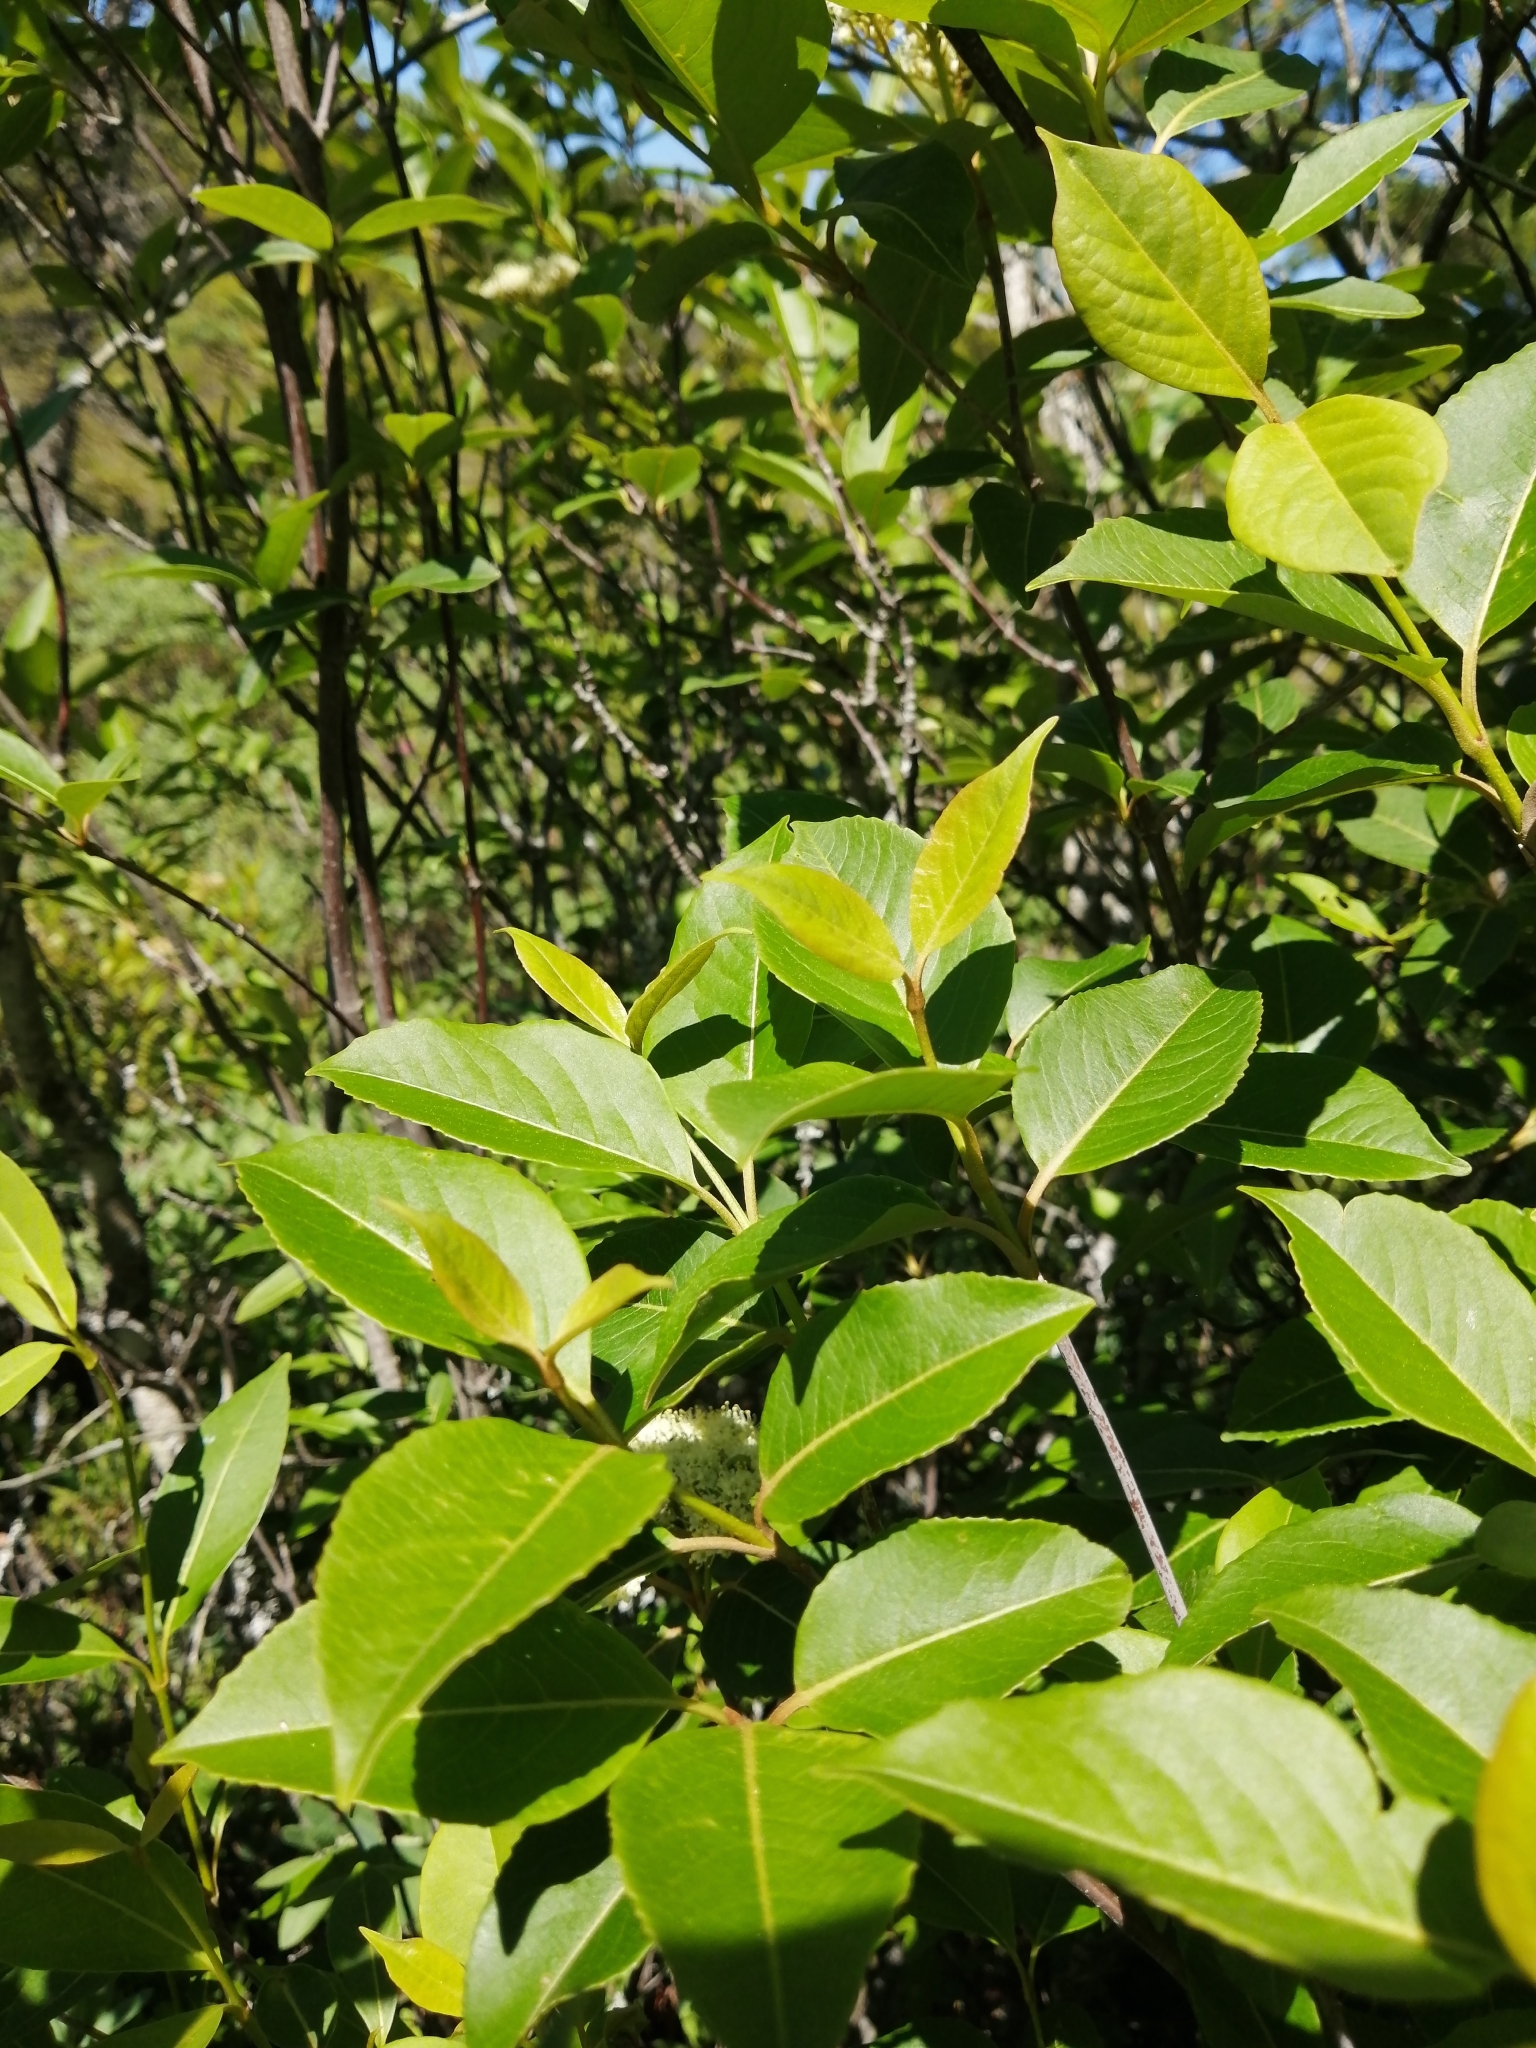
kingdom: Plantae
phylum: Tracheophyta
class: Magnoliopsida
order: Dipsacales
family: Viburnaceae
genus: Viburnum
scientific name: Viburnum cassinoides
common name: Swamp haw
